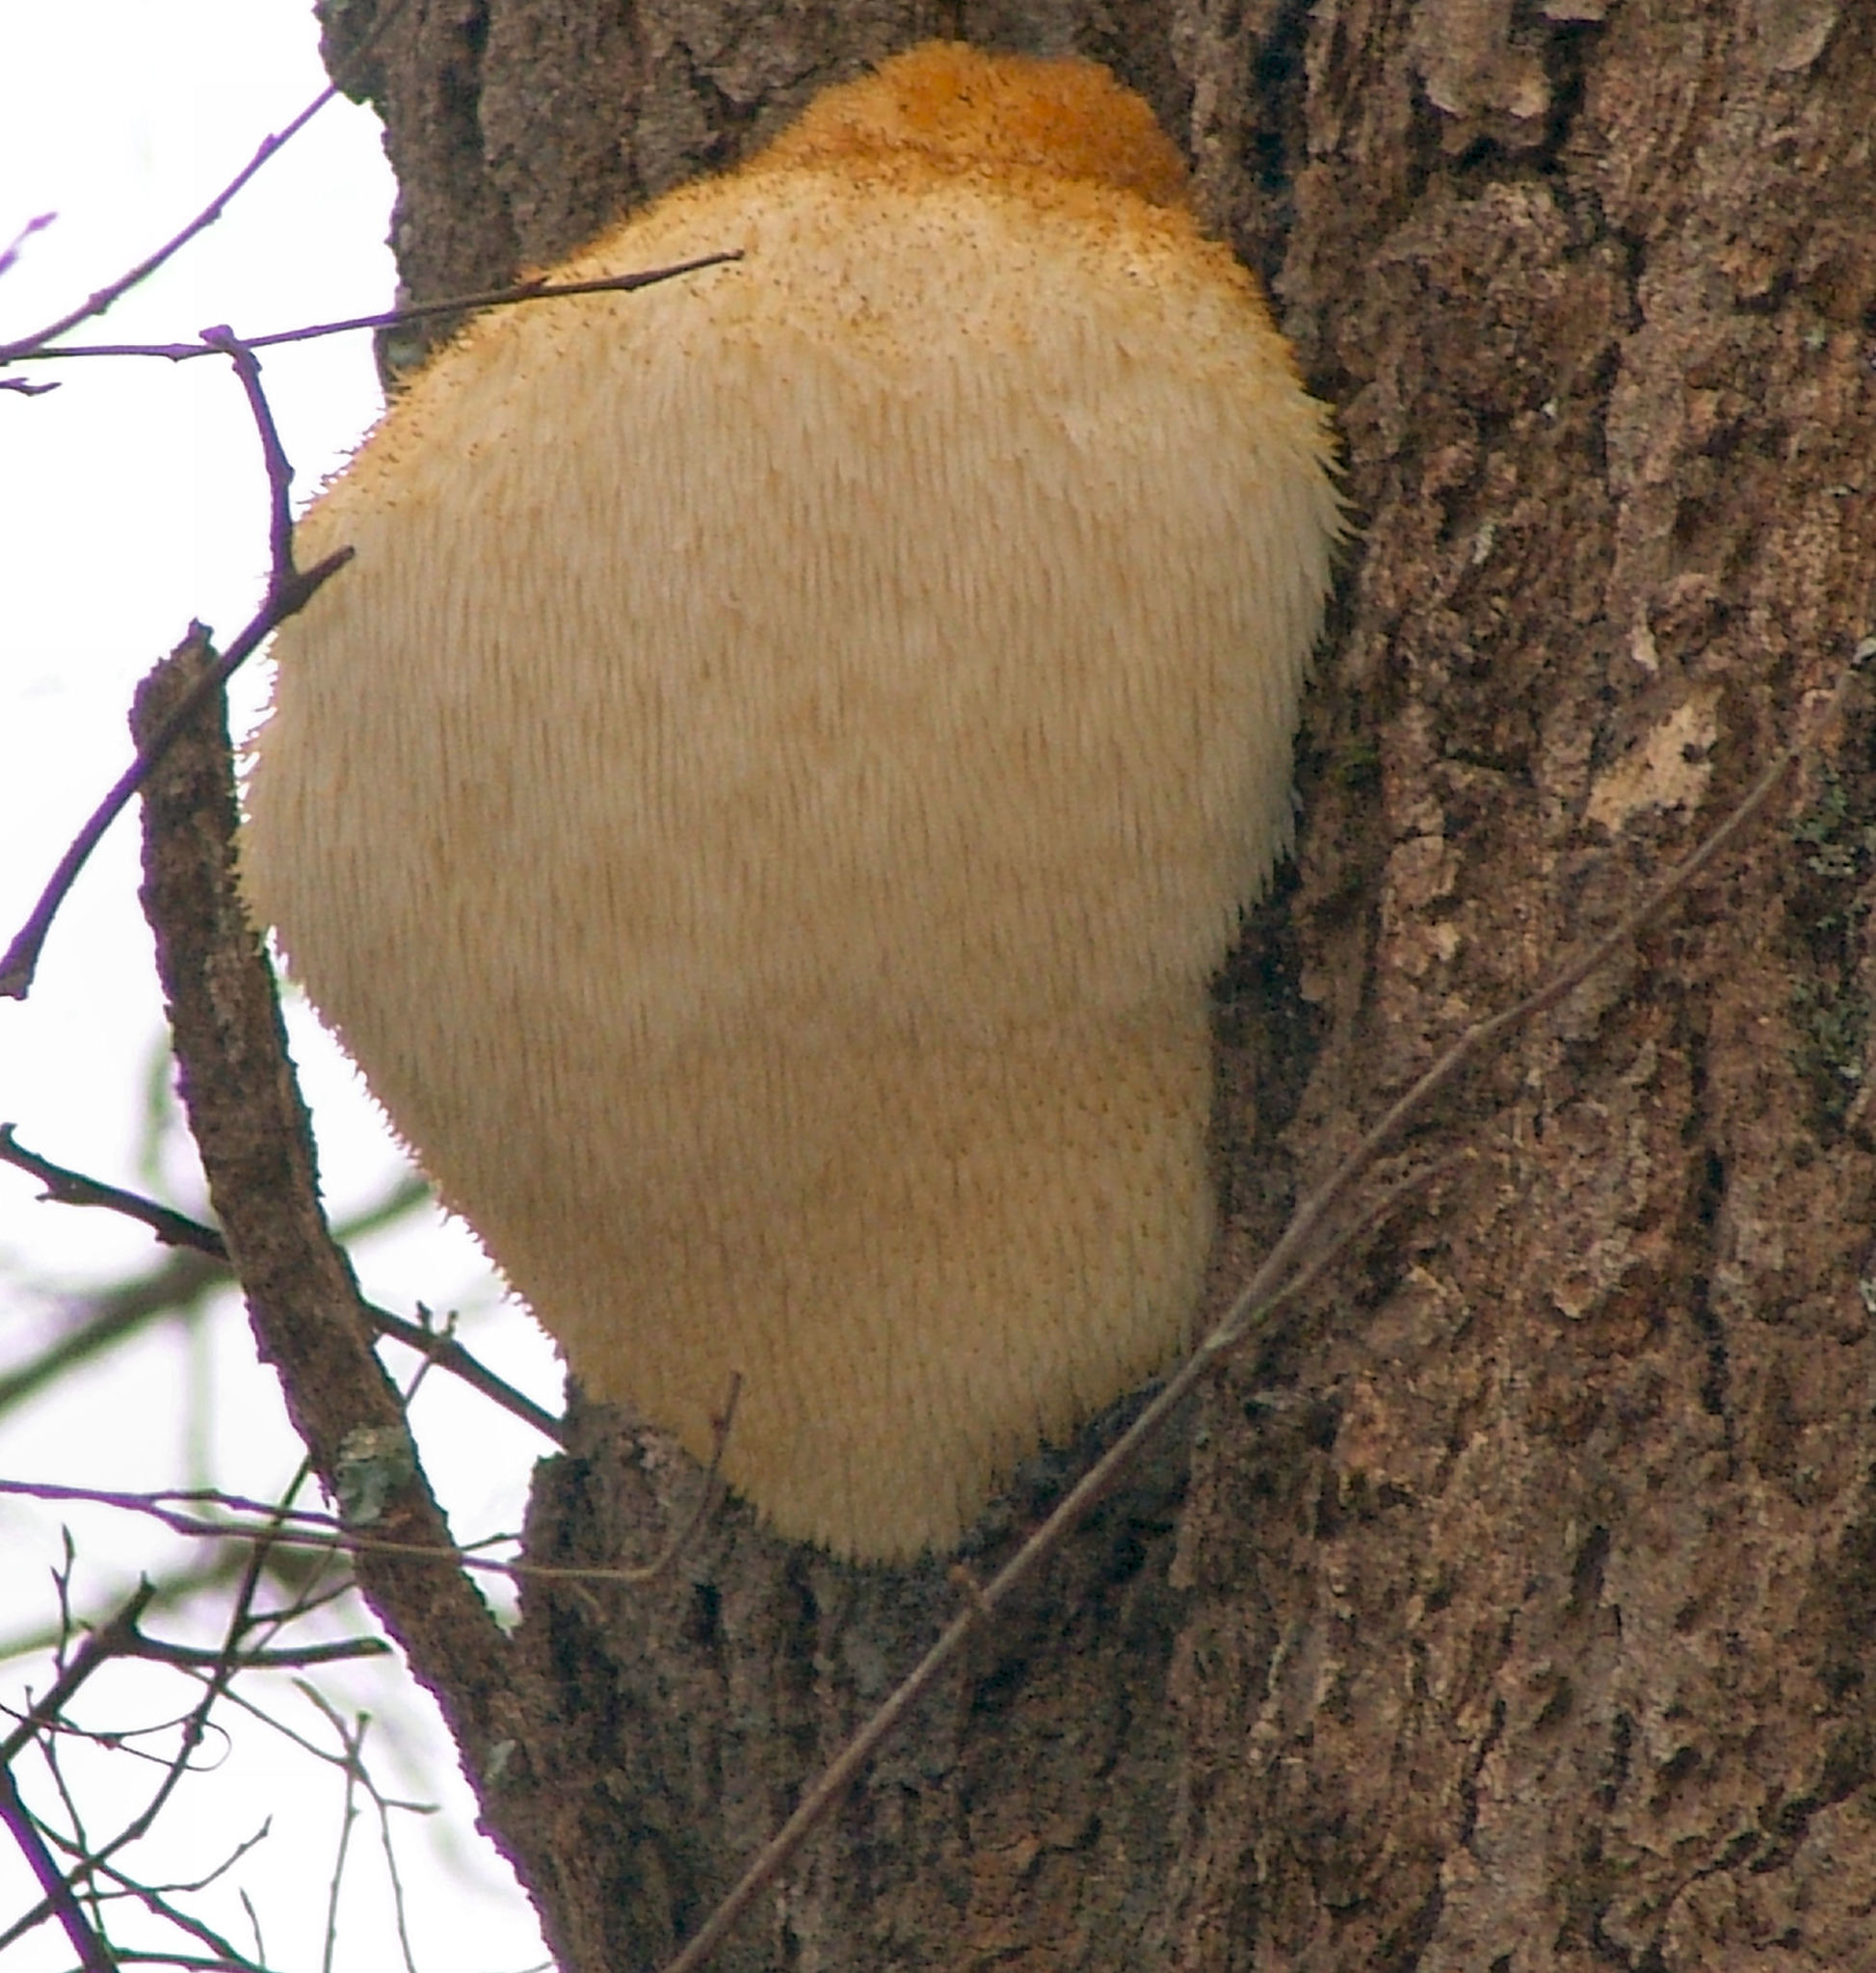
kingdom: Fungi
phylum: Basidiomycota
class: Agaricomycetes
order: Russulales
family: Hericiaceae
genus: Hericium
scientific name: Hericium erinaceus
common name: Bearded tooth
